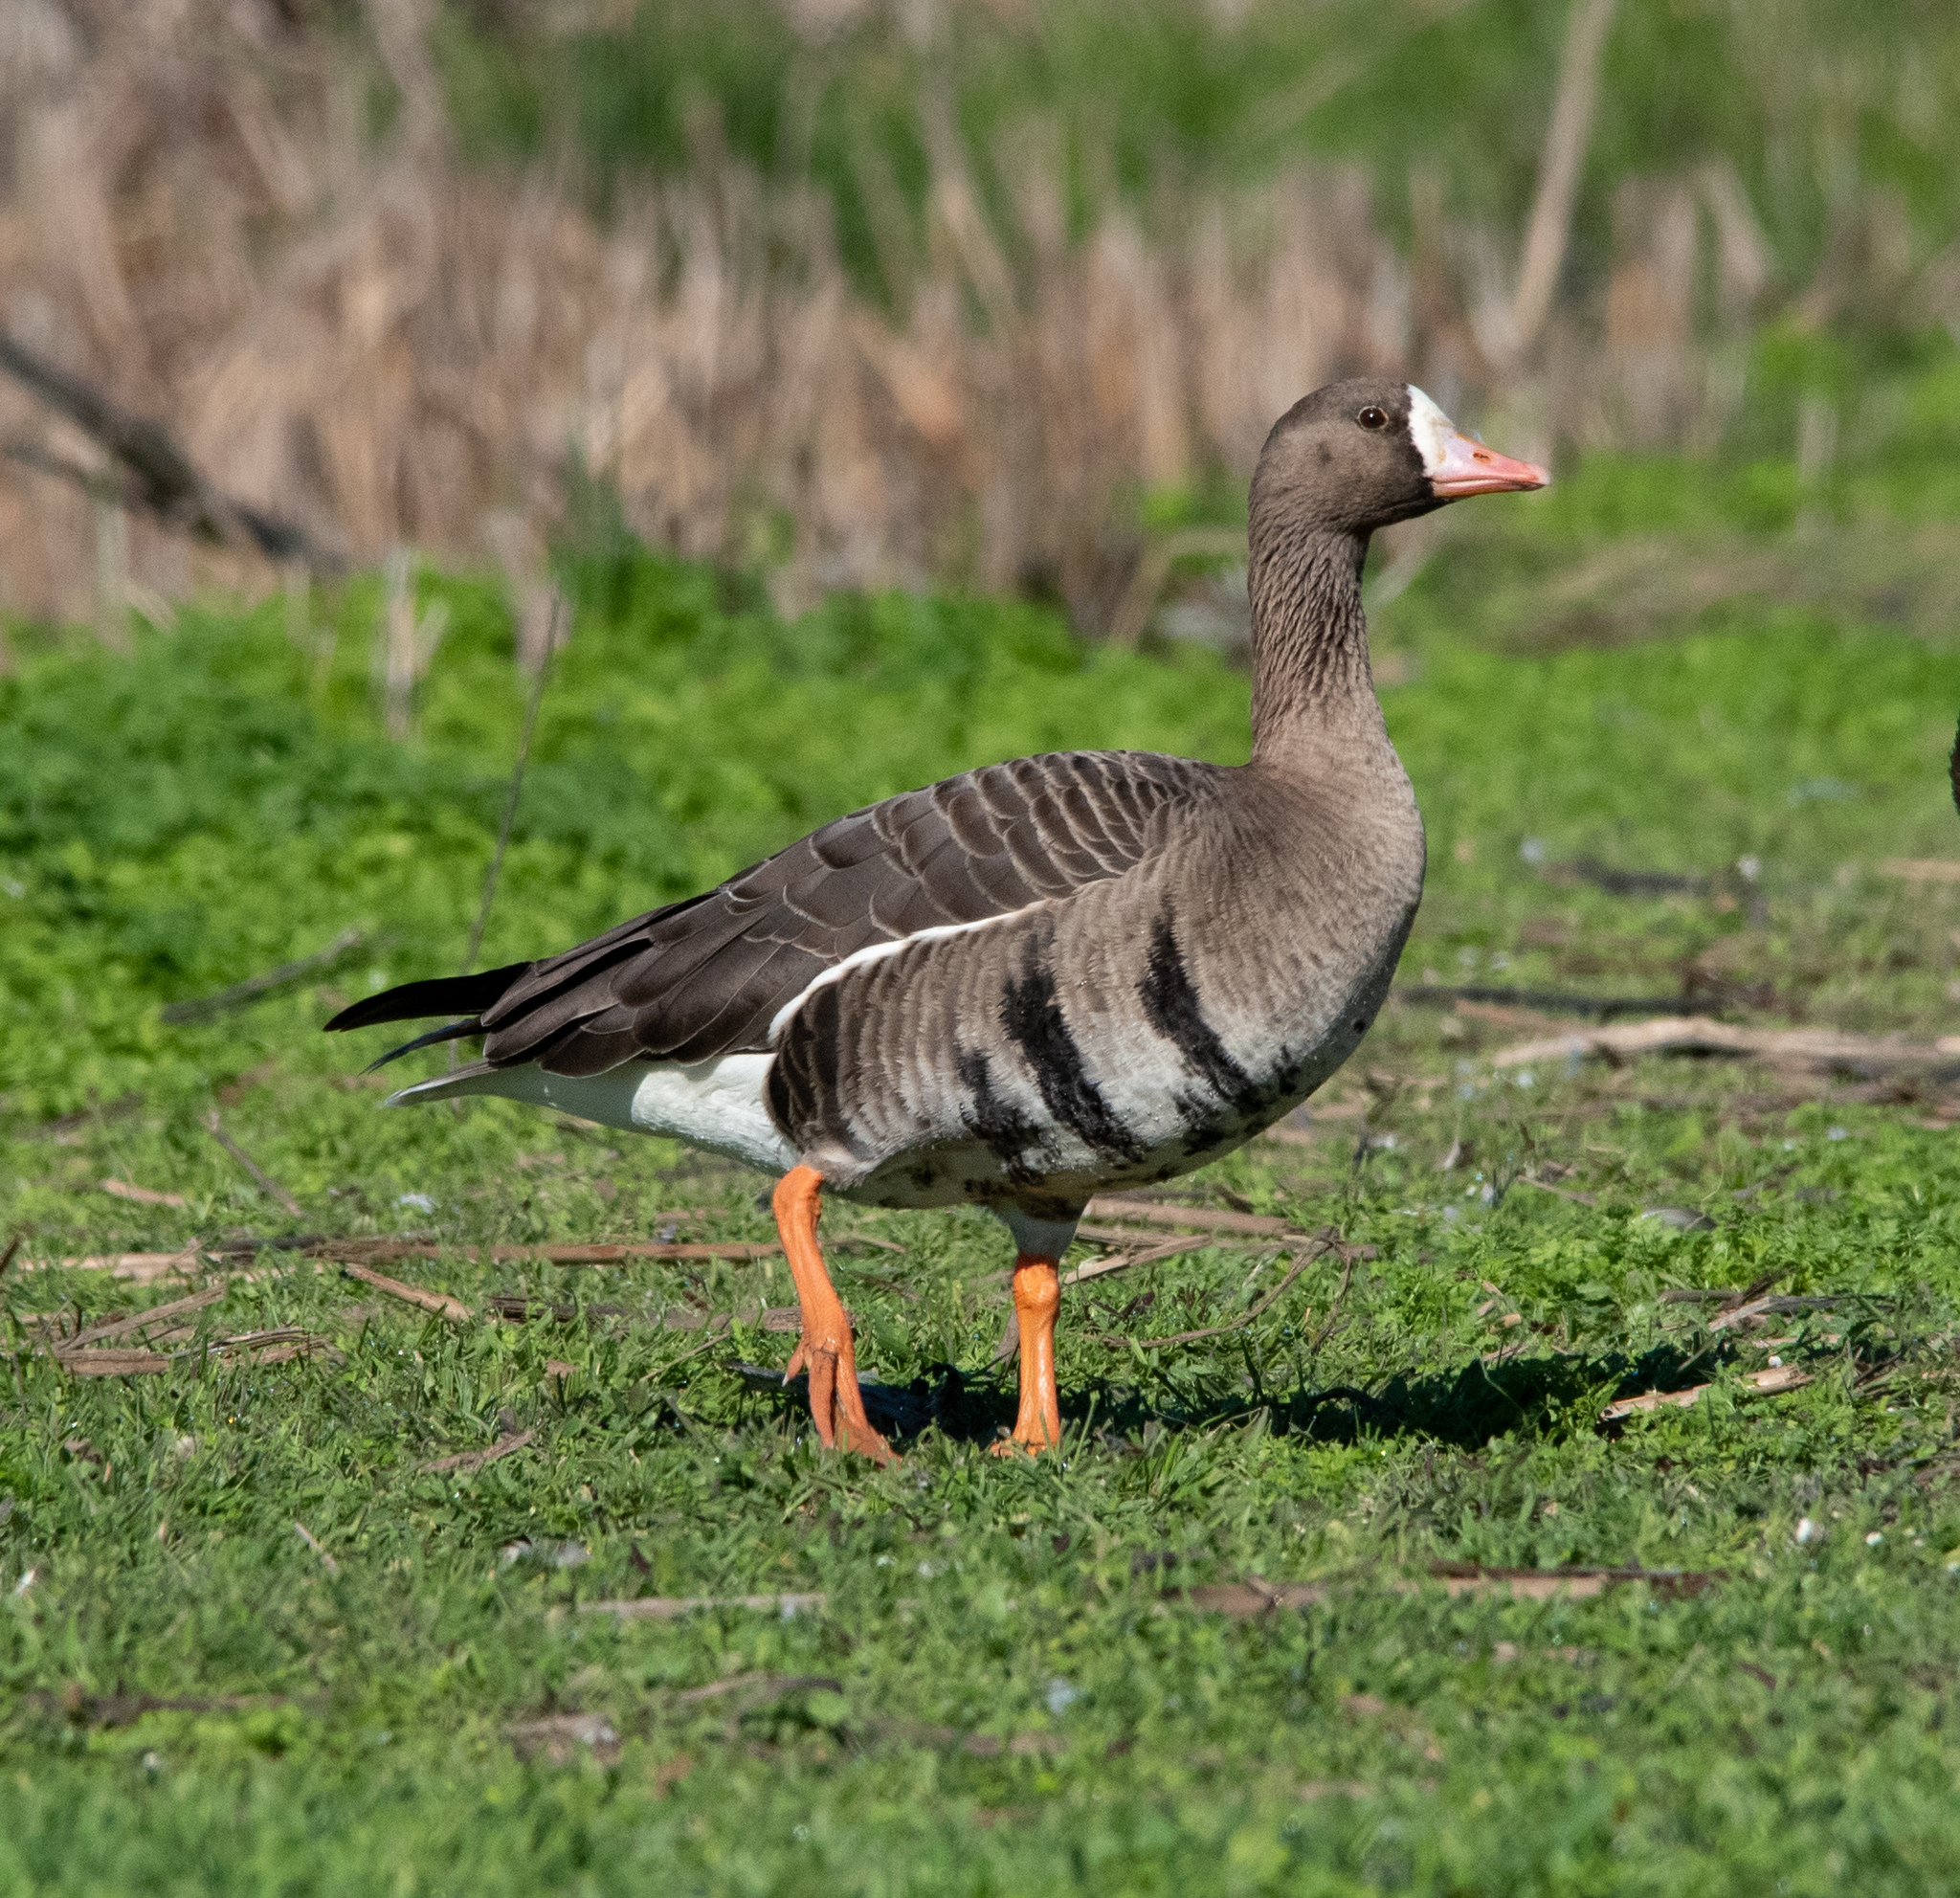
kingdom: Animalia
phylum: Chordata
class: Aves
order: Anseriformes
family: Anatidae
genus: Anser
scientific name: Anser albifrons
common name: Greater white-fronted goose
